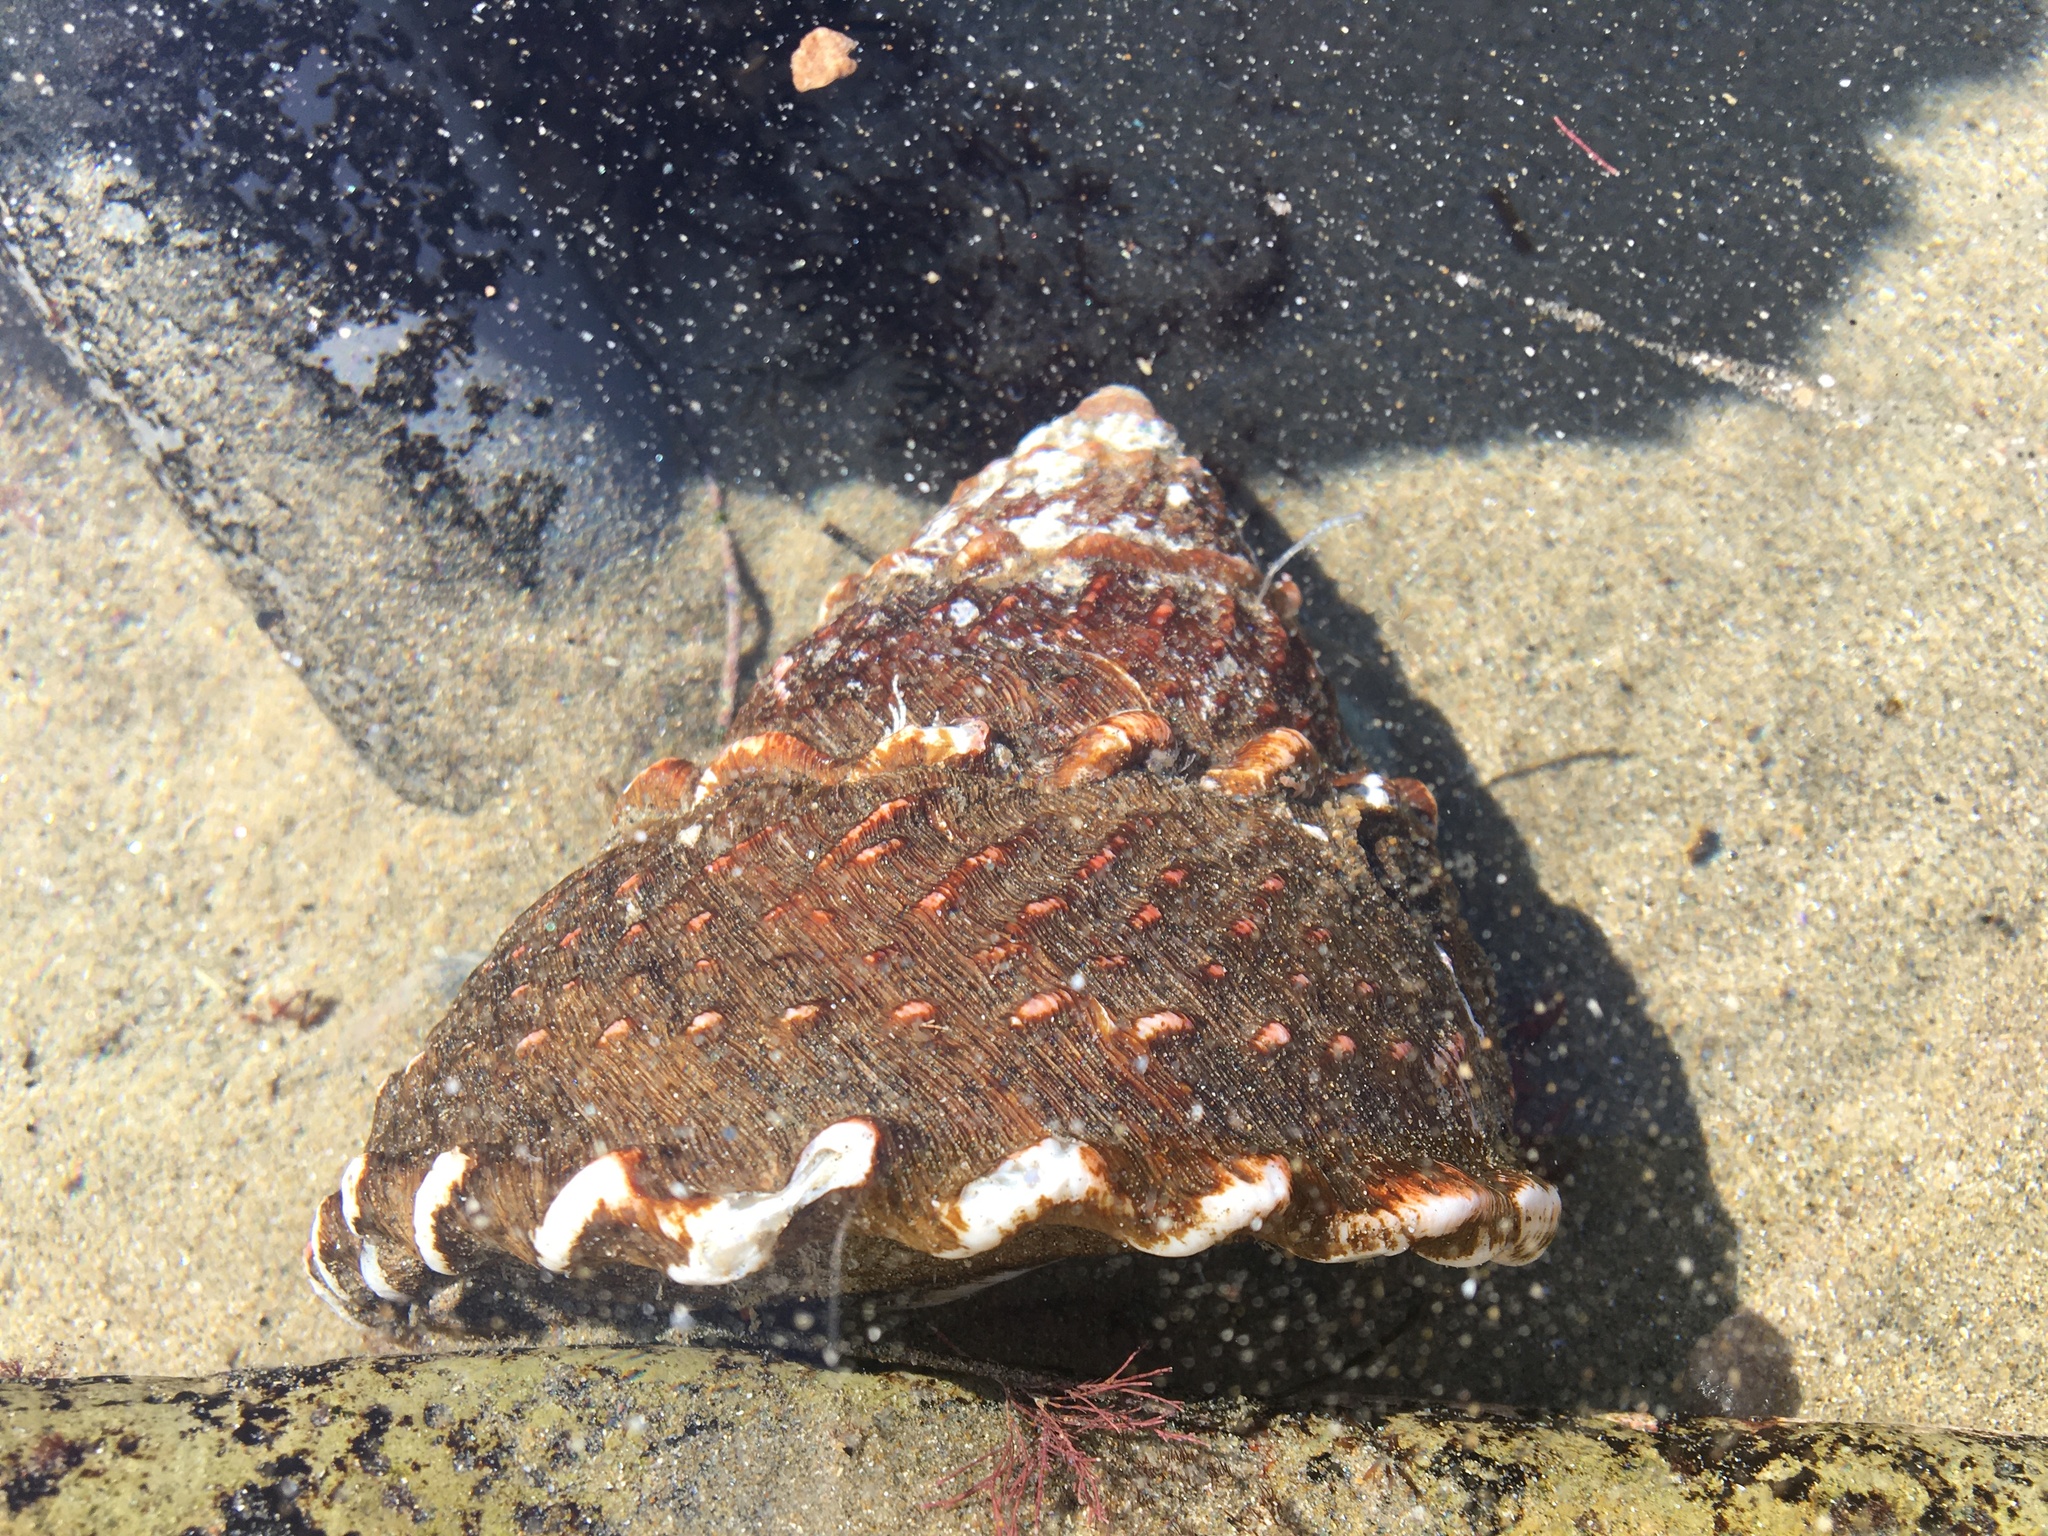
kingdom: Animalia
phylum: Mollusca
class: Gastropoda
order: Trochida
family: Turbinidae
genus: Megastraea
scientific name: Megastraea undosa
